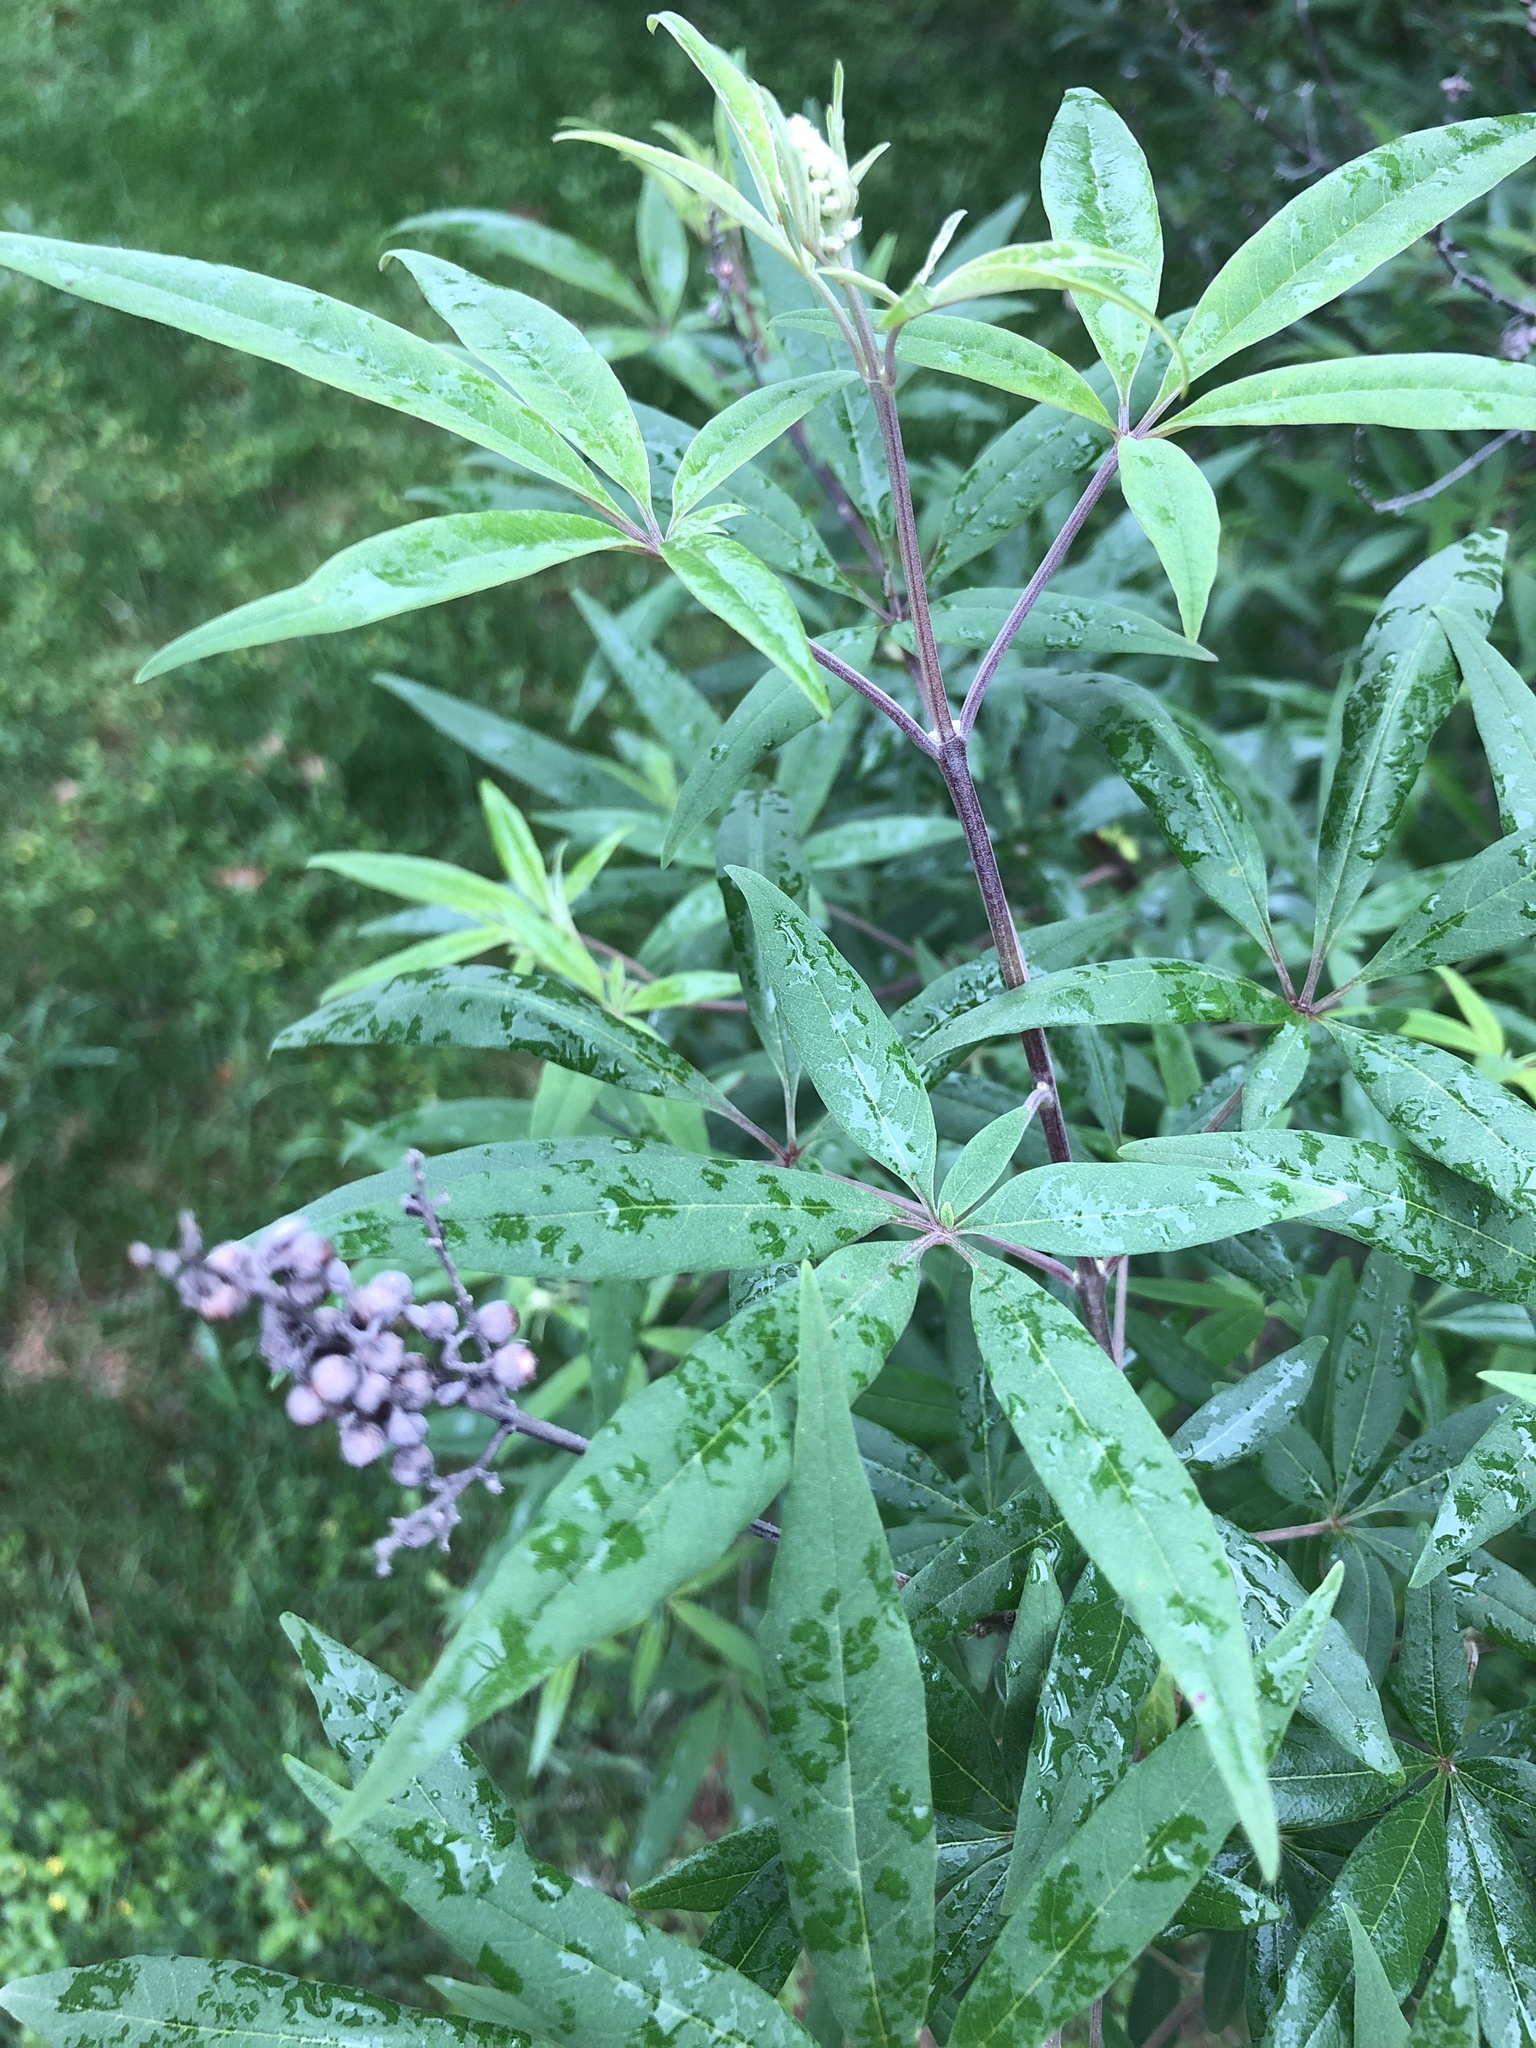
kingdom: Plantae
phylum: Tracheophyta
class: Magnoliopsida
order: Lamiales
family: Lamiaceae
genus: Vitex
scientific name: Vitex agnus-castus
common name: Chasteberry
